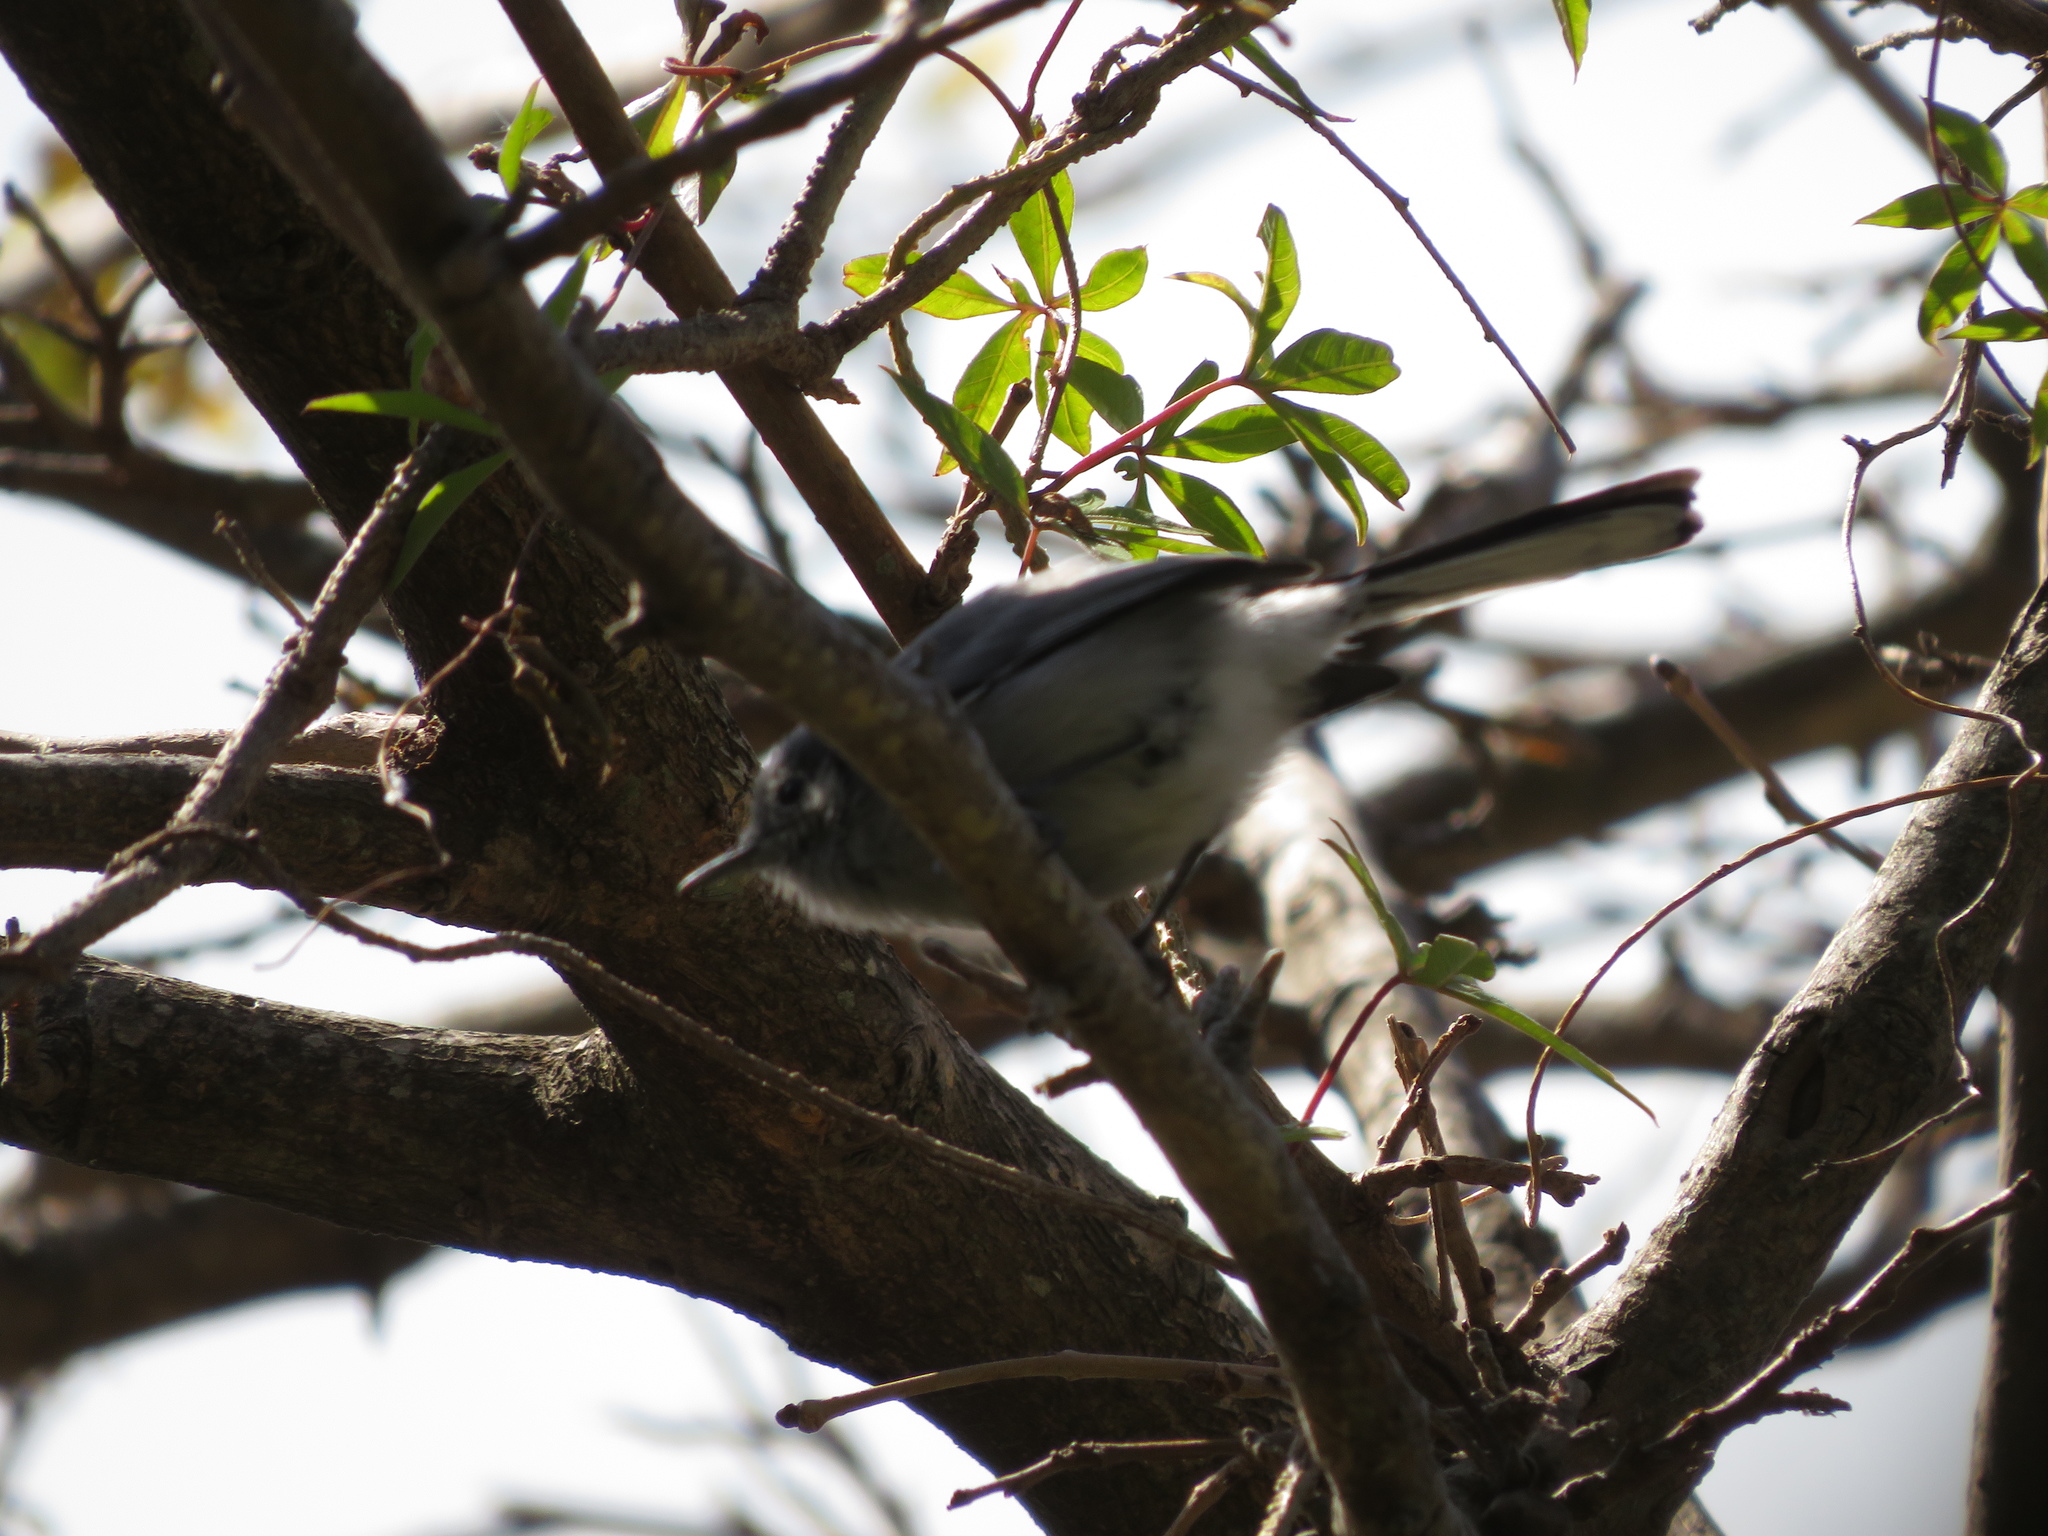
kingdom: Animalia
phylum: Chordata
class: Aves
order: Passeriformes
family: Polioptilidae
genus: Polioptila
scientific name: Polioptila dumicola
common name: Masked gnatcatcher
